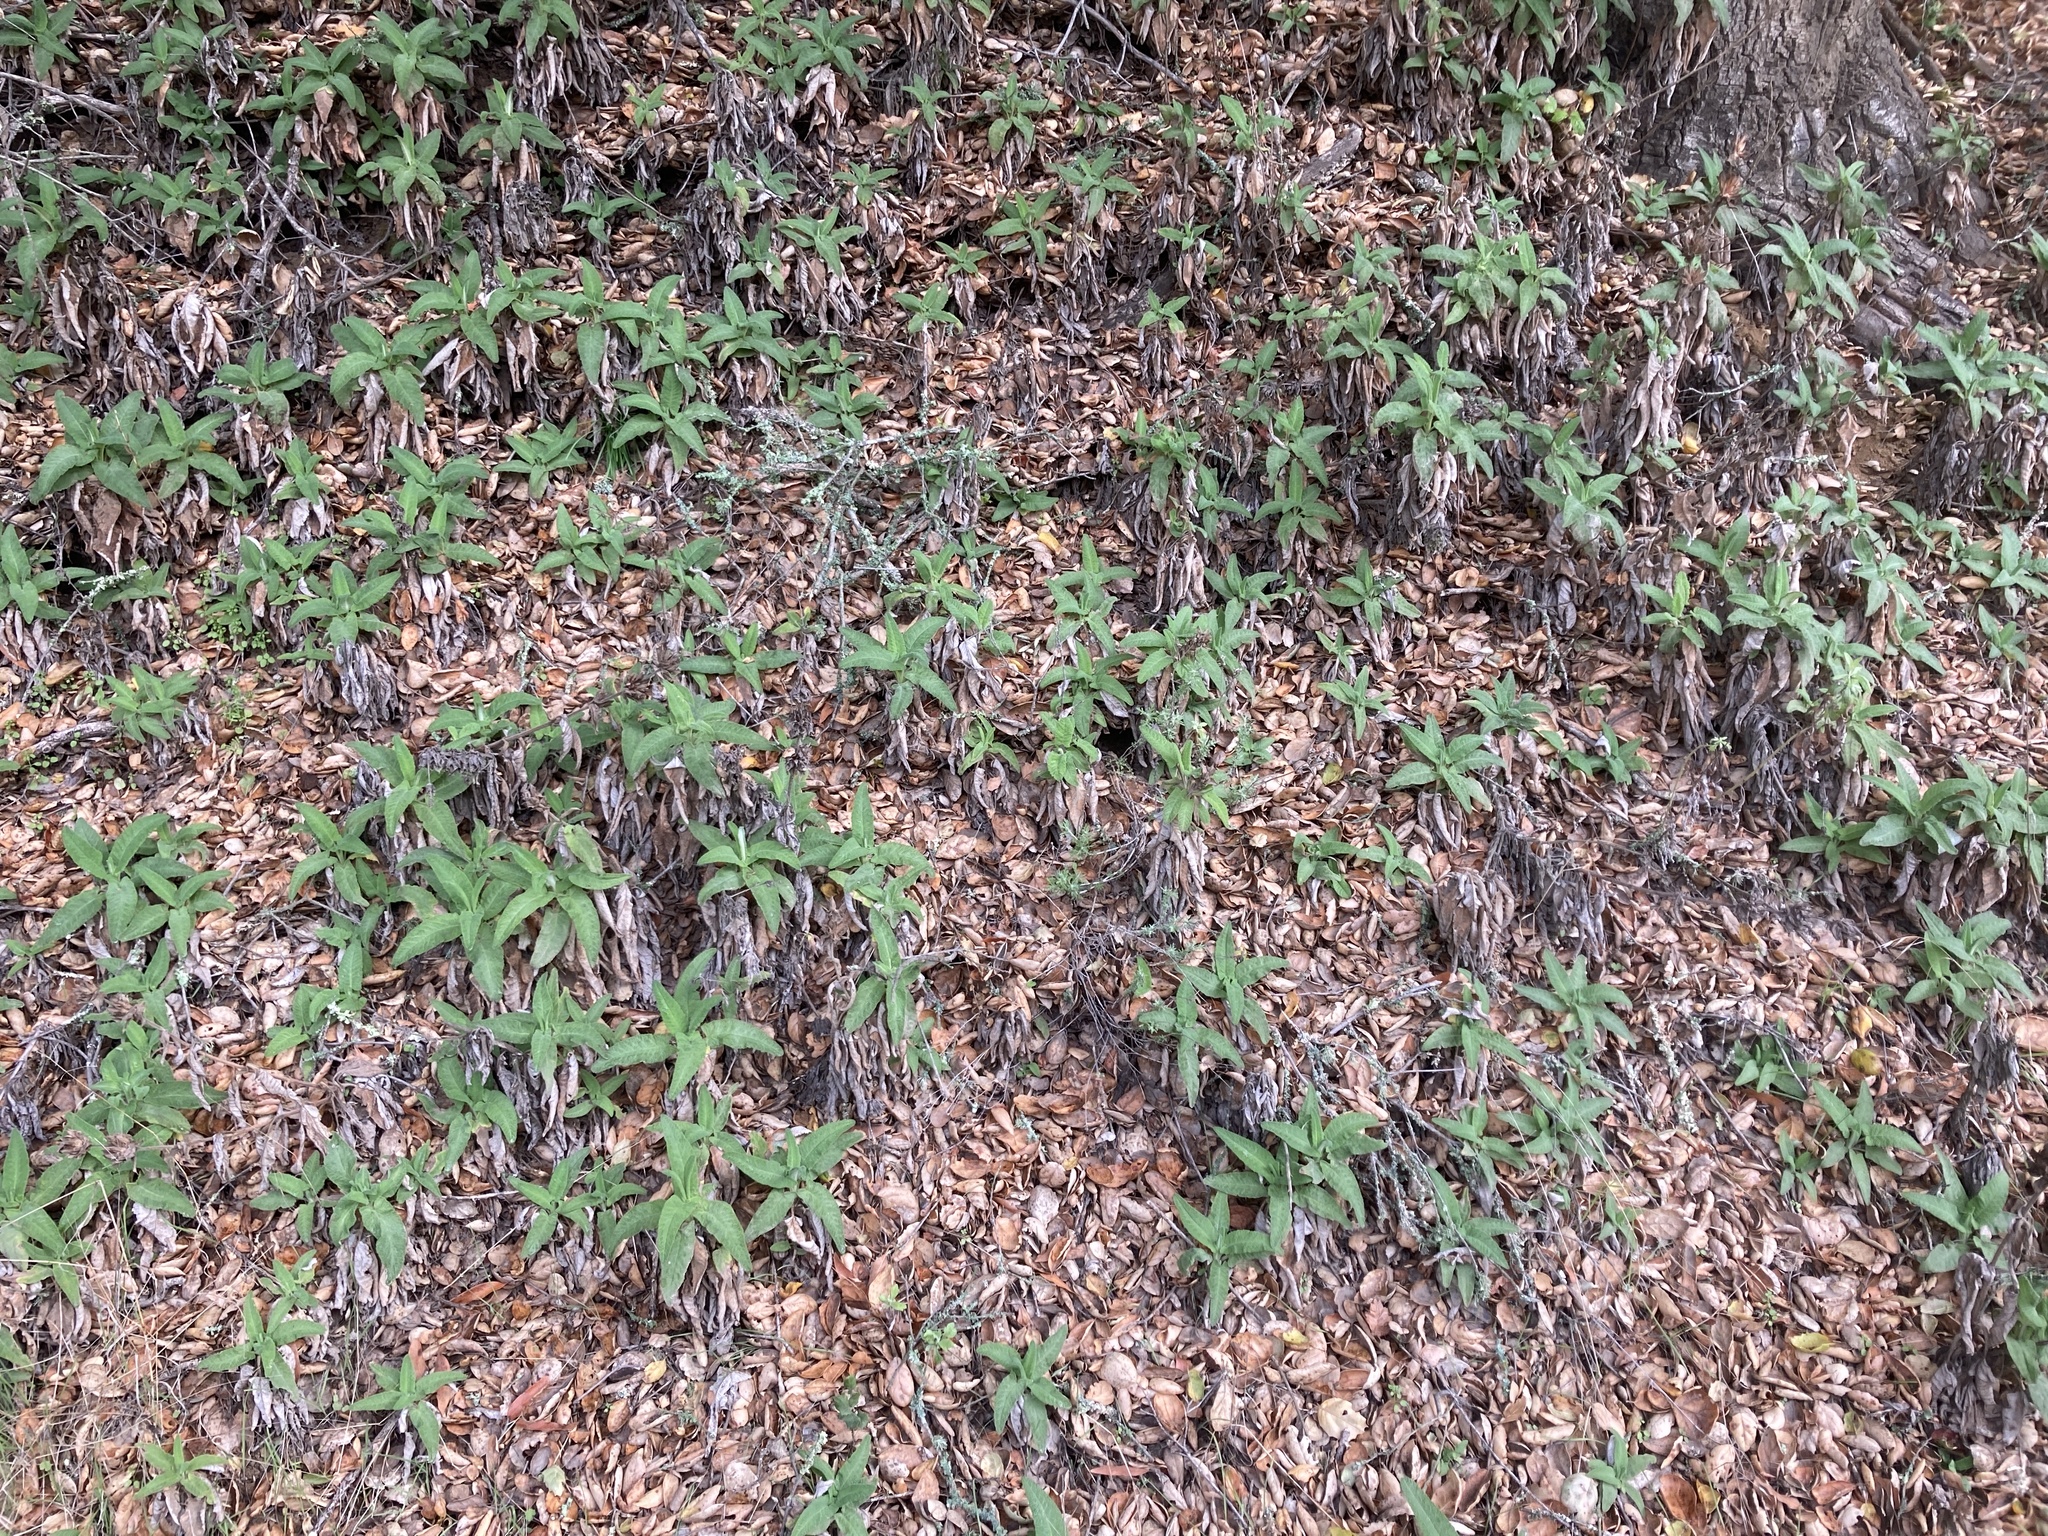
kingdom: Plantae
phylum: Tracheophyta
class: Magnoliopsida
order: Lamiales
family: Lamiaceae
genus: Salvia
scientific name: Salvia spathacea
